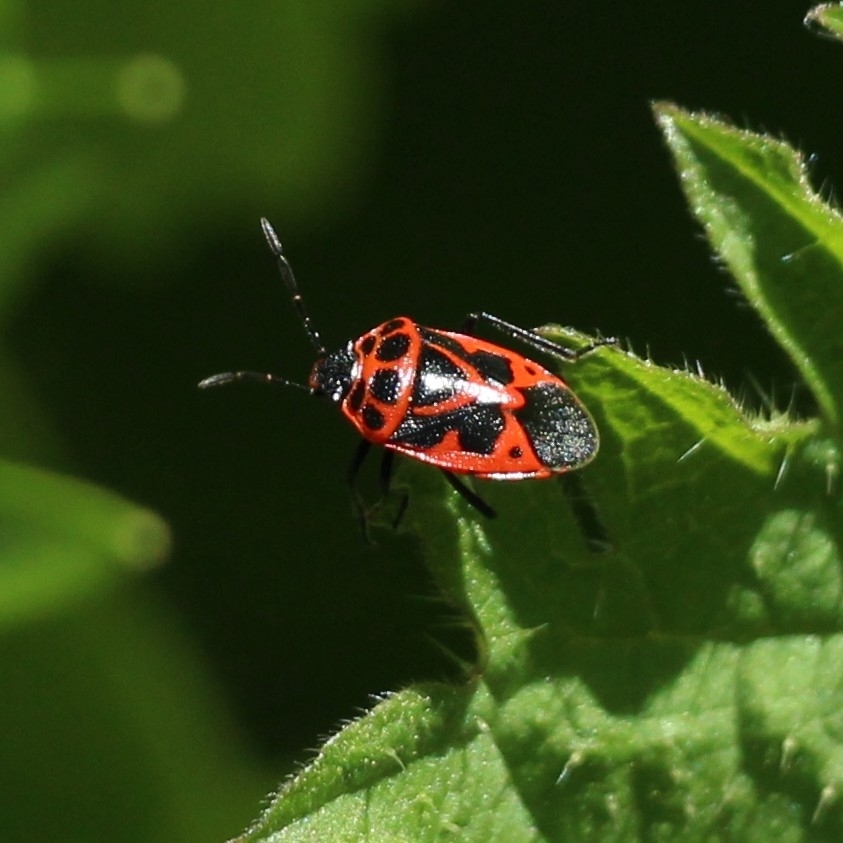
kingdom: Animalia
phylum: Arthropoda
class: Insecta
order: Hemiptera
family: Pentatomidae
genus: Eurydema
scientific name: Eurydema dominulus
